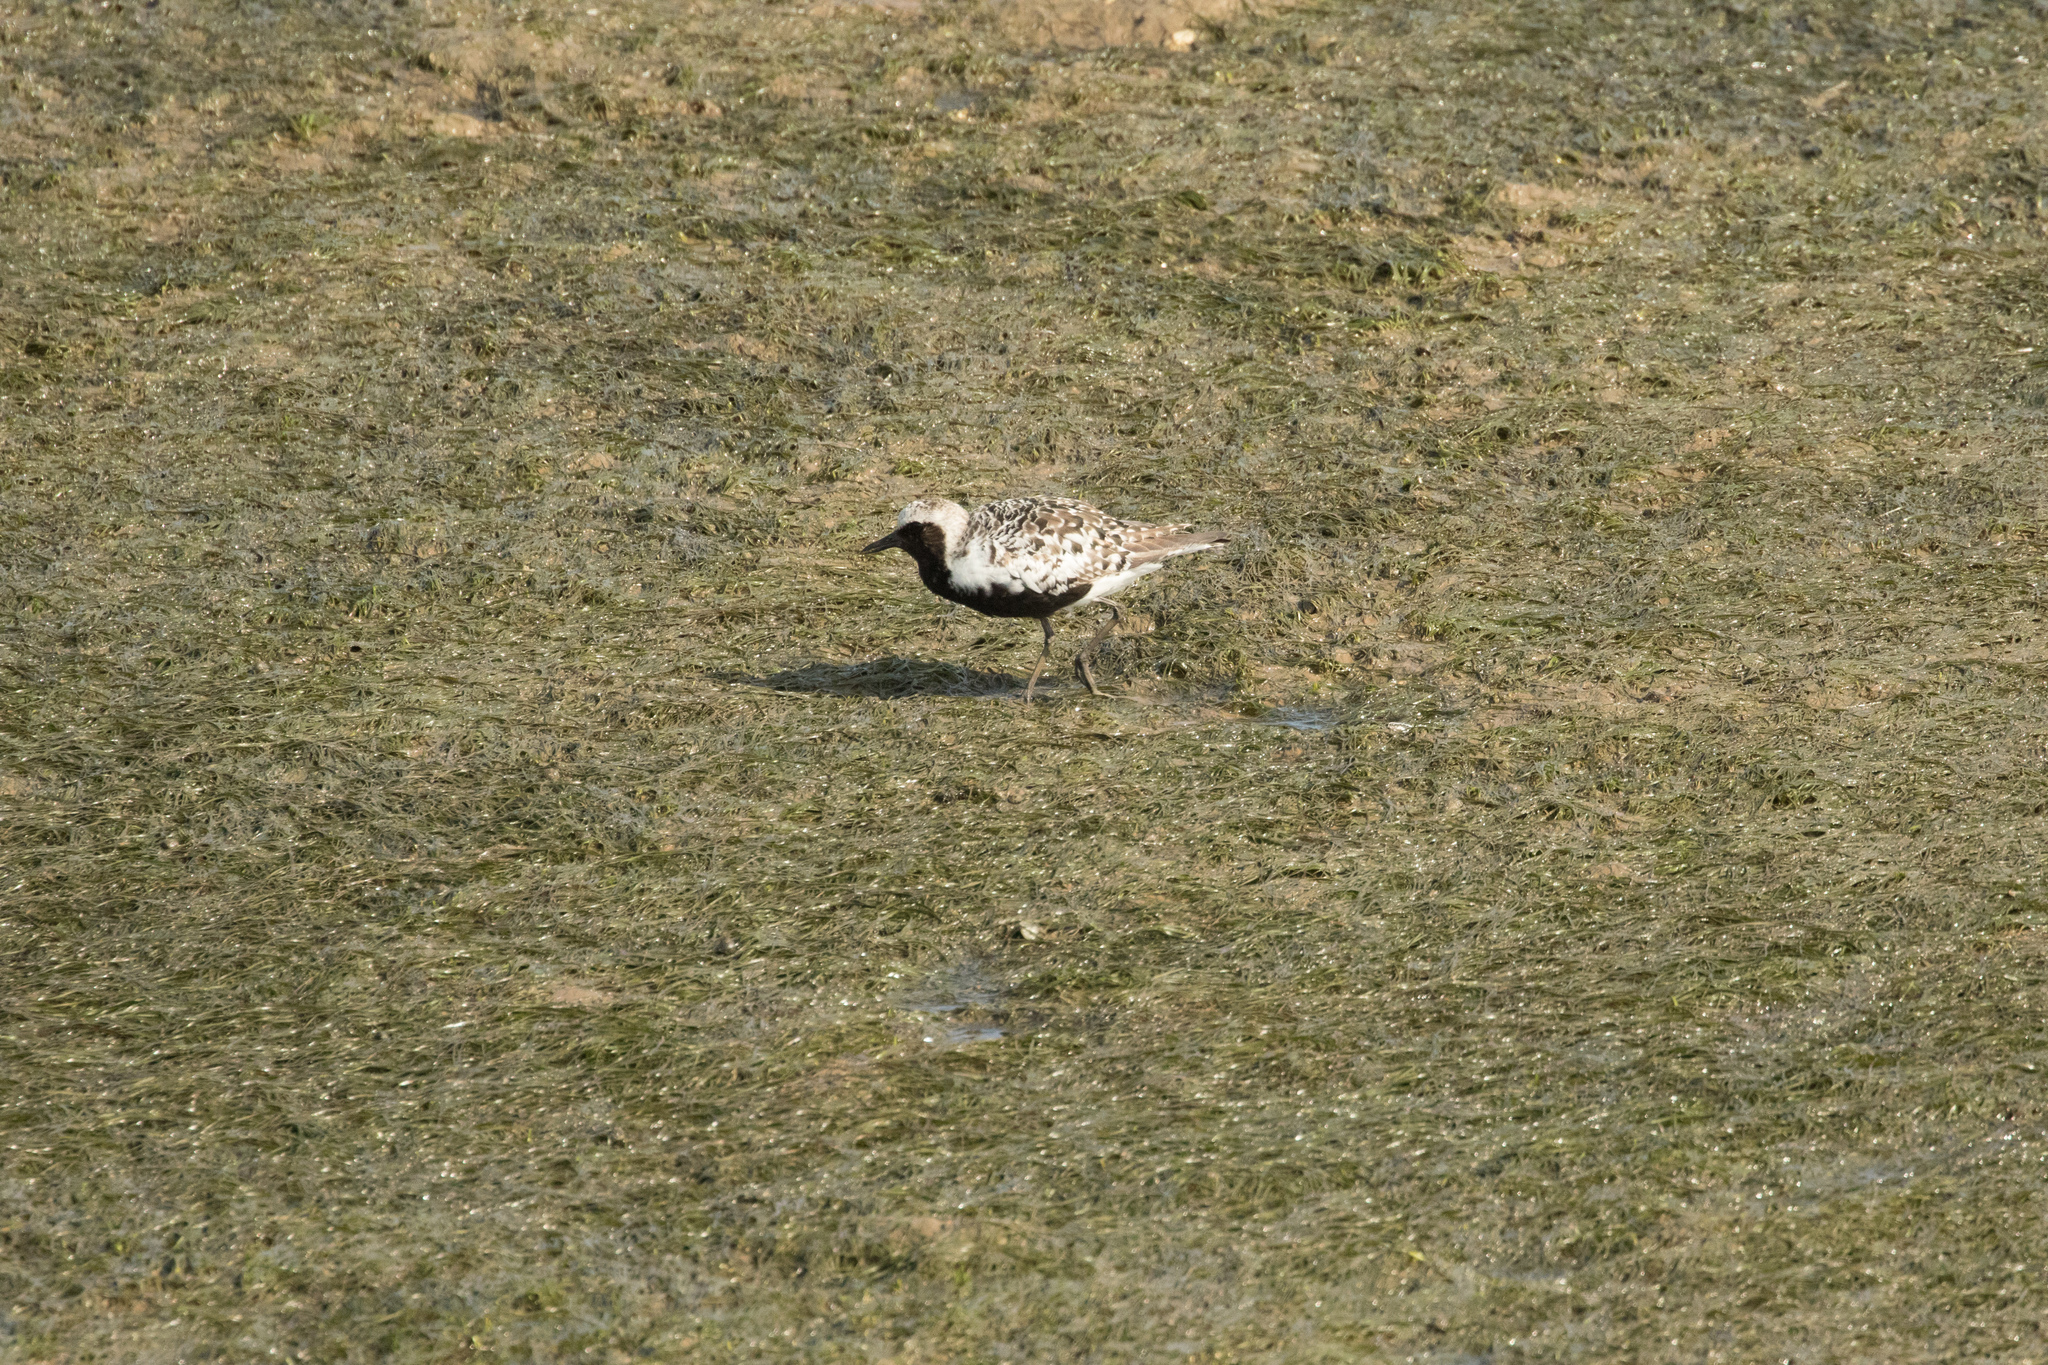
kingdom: Animalia
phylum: Chordata
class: Aves
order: Charadriiformes
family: Charadriidae
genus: Pluvialis
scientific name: Pluvialis squatarola
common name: Grey plover
